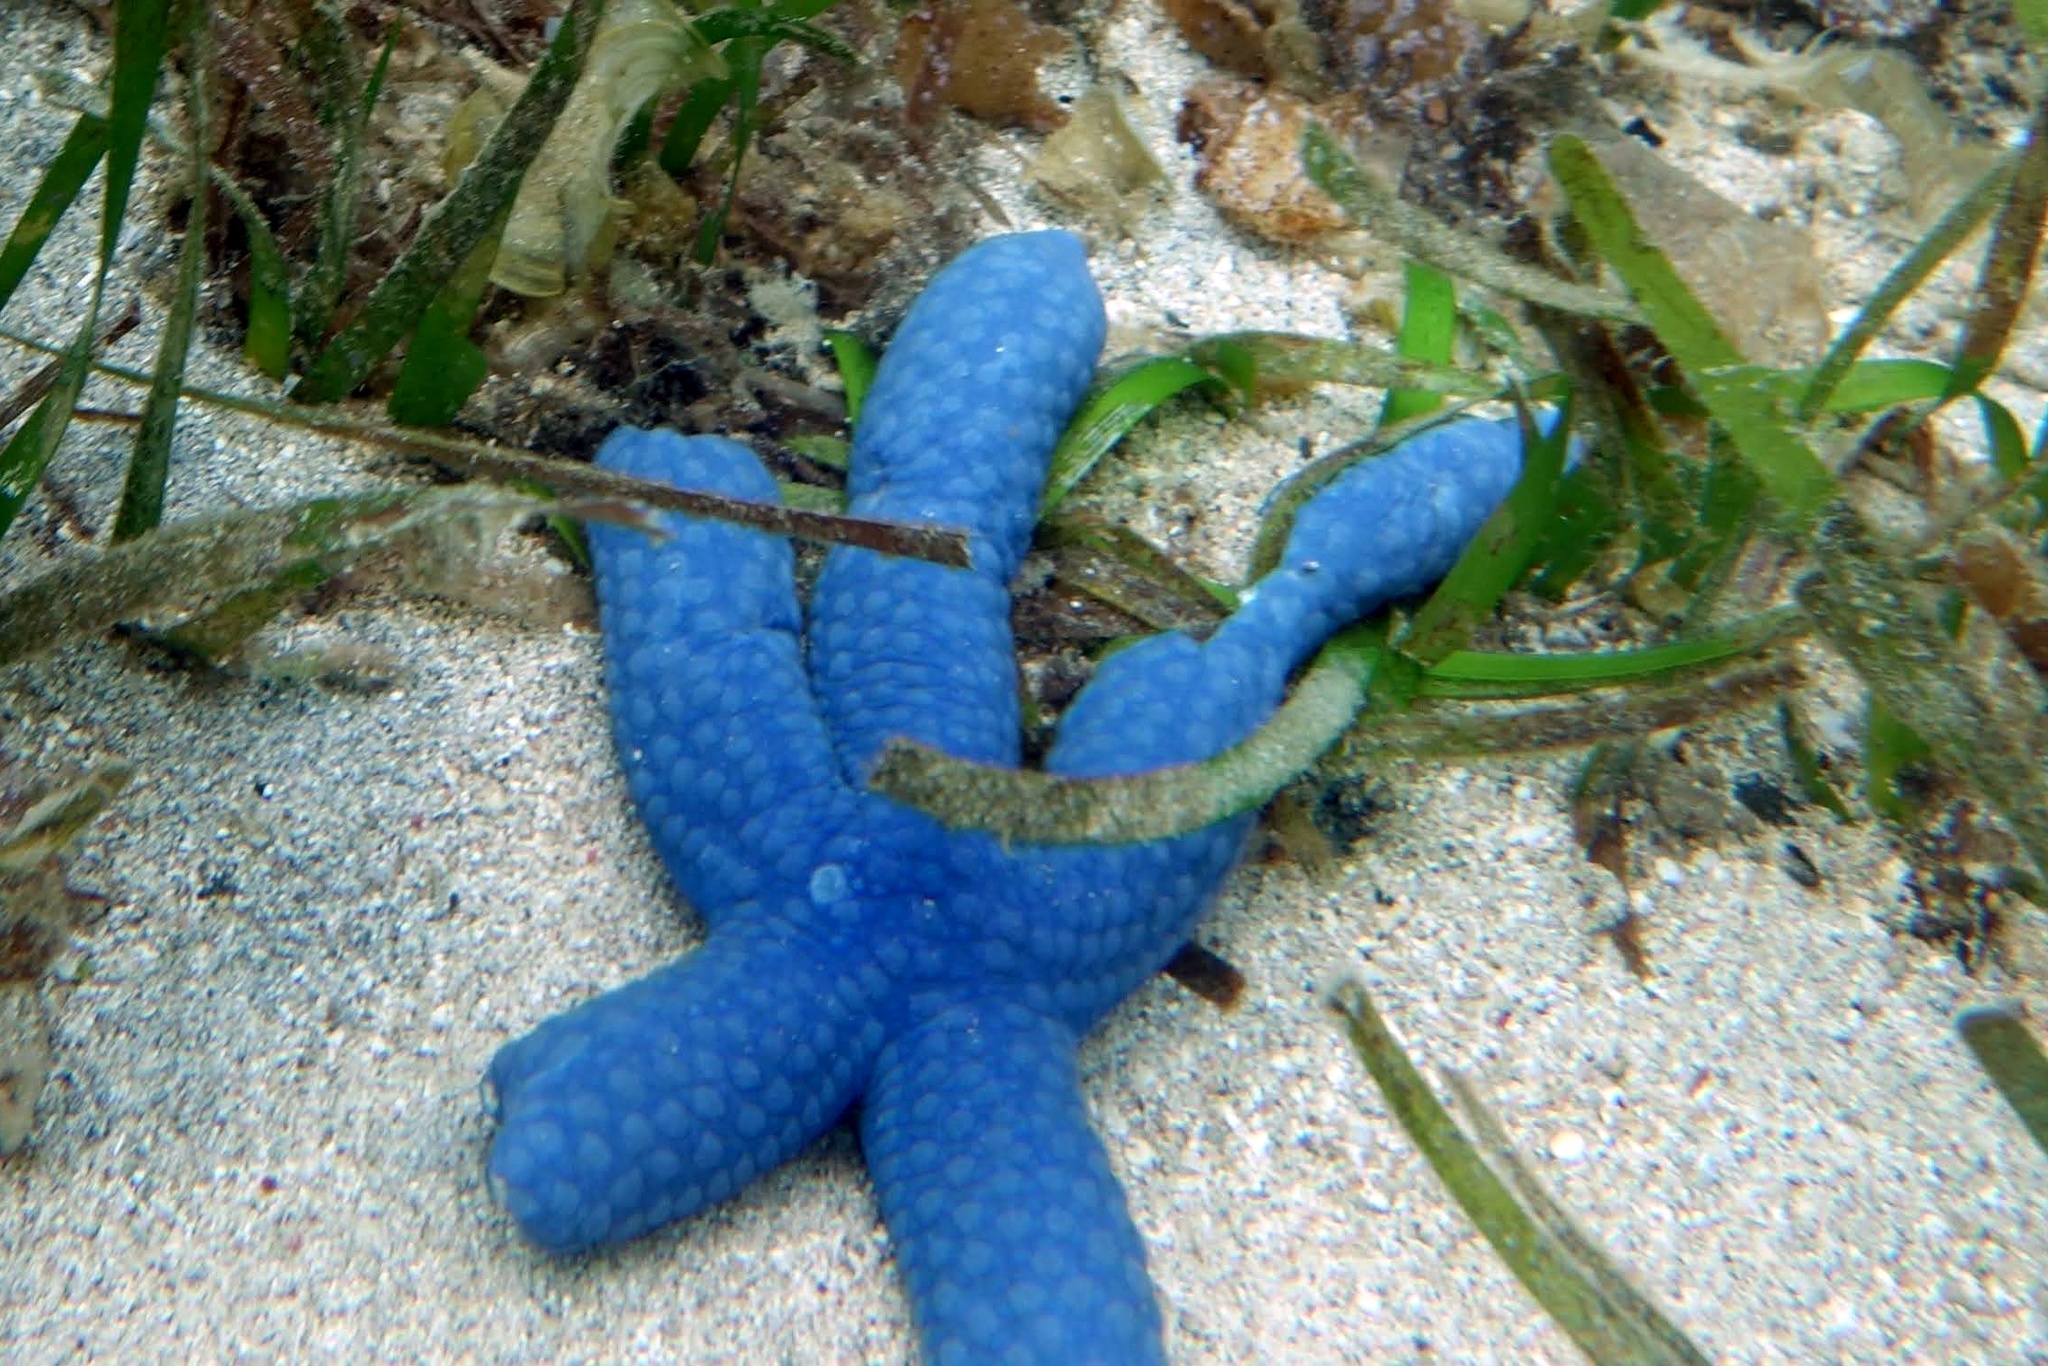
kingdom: Animalia
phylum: Echinodermata
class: Asteroidea
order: Valvatida
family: Ophidiasteridae
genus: Linckia
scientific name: Linckia laevigata
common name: Azure sea star
